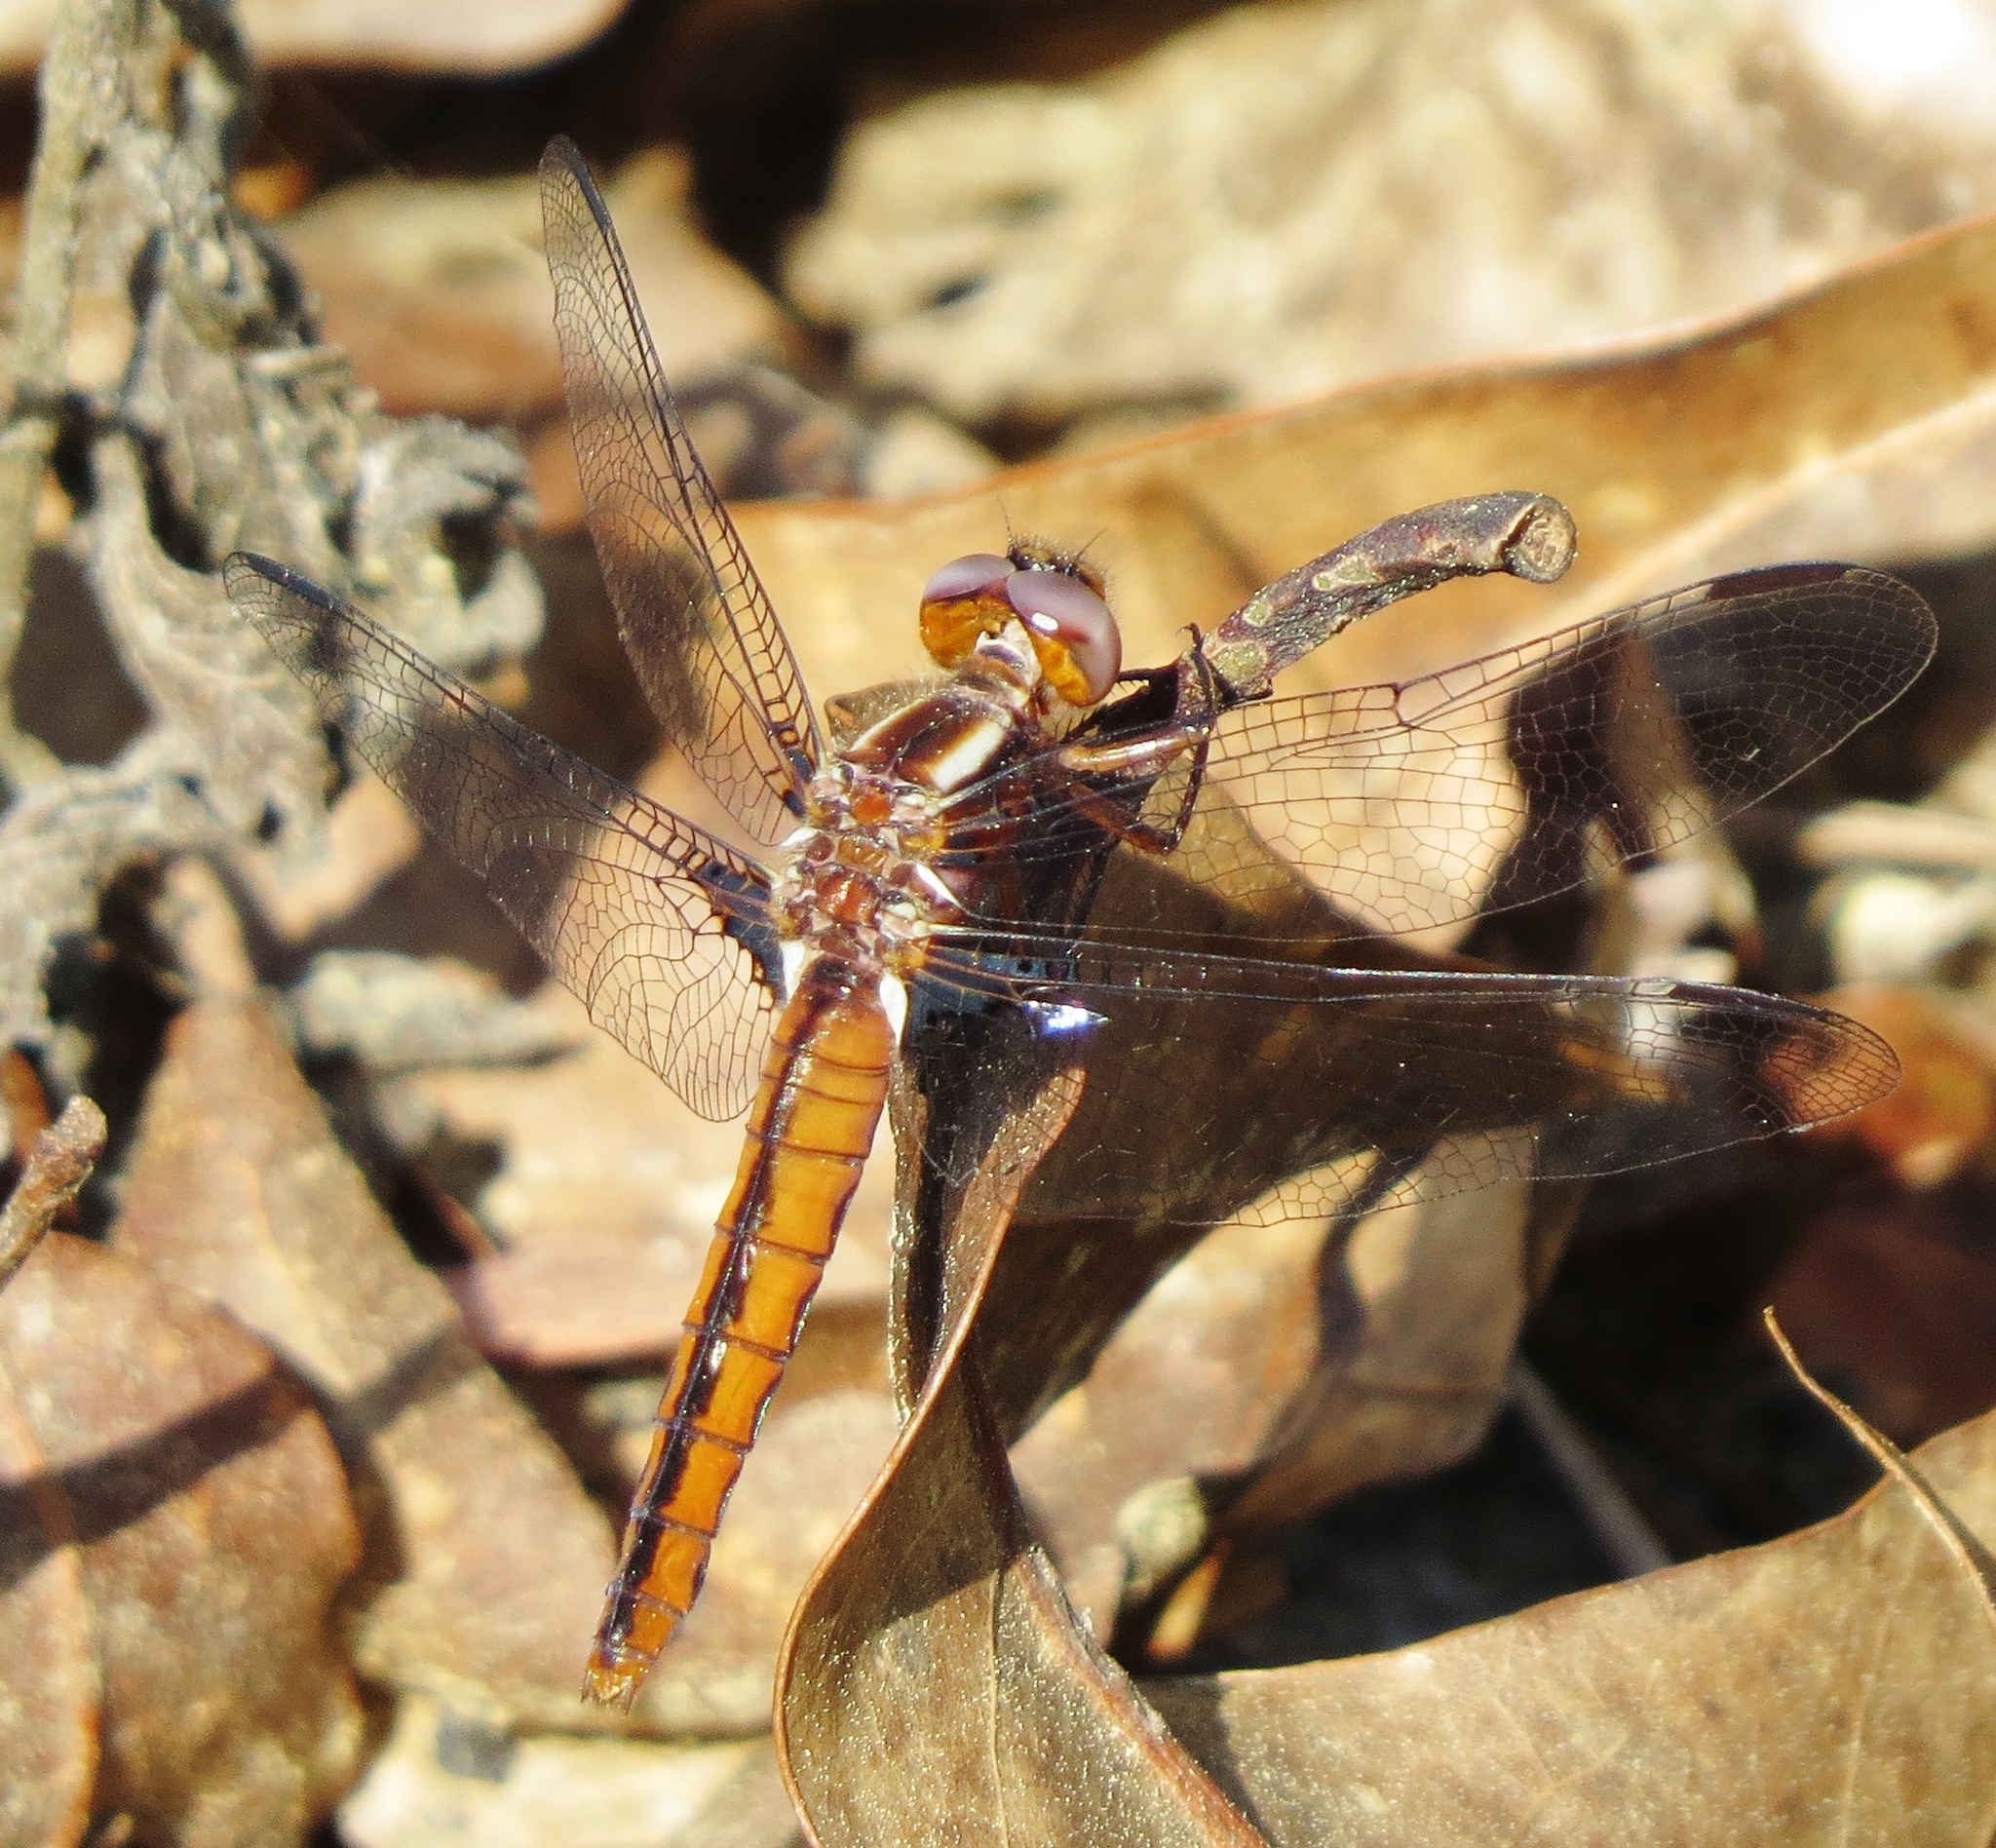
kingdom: Animalia
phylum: Arthropoda
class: Insecta
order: Odonata
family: Libellulidae
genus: Ladona
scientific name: Ladona deplanata
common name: Blue corporal
